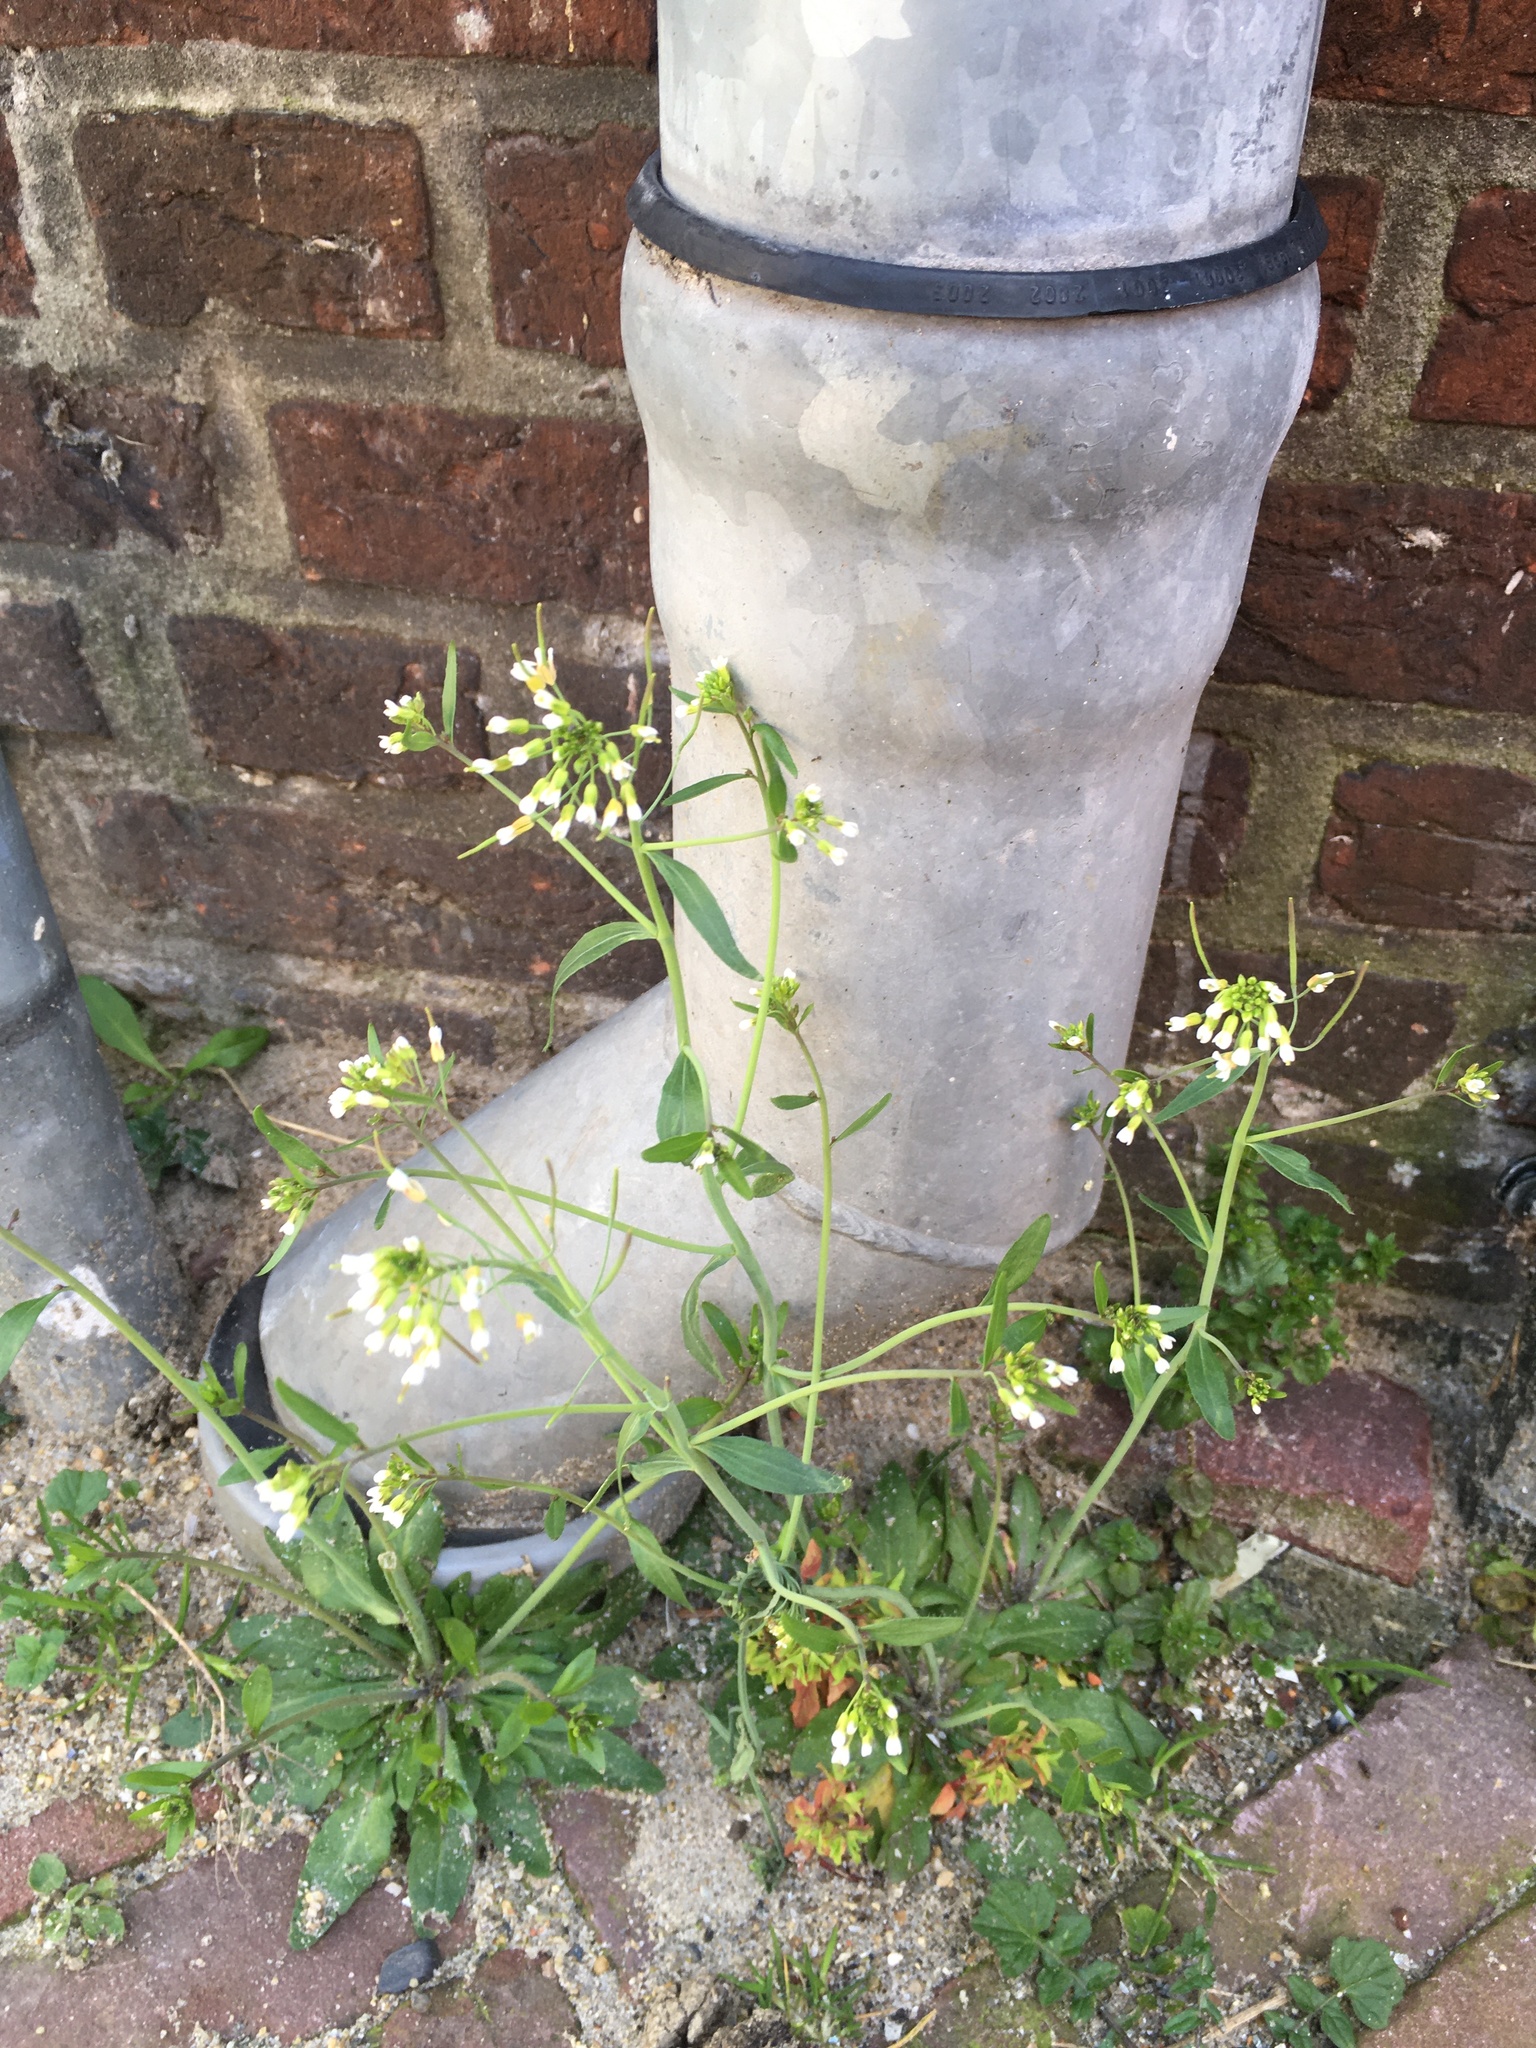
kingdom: Plantae
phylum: Tracheophyta
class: Magnoliopsida
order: Brassicales
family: Brassicaceae
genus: Arabidopsis
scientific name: Arabidopsis thaliana
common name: Thale cress
